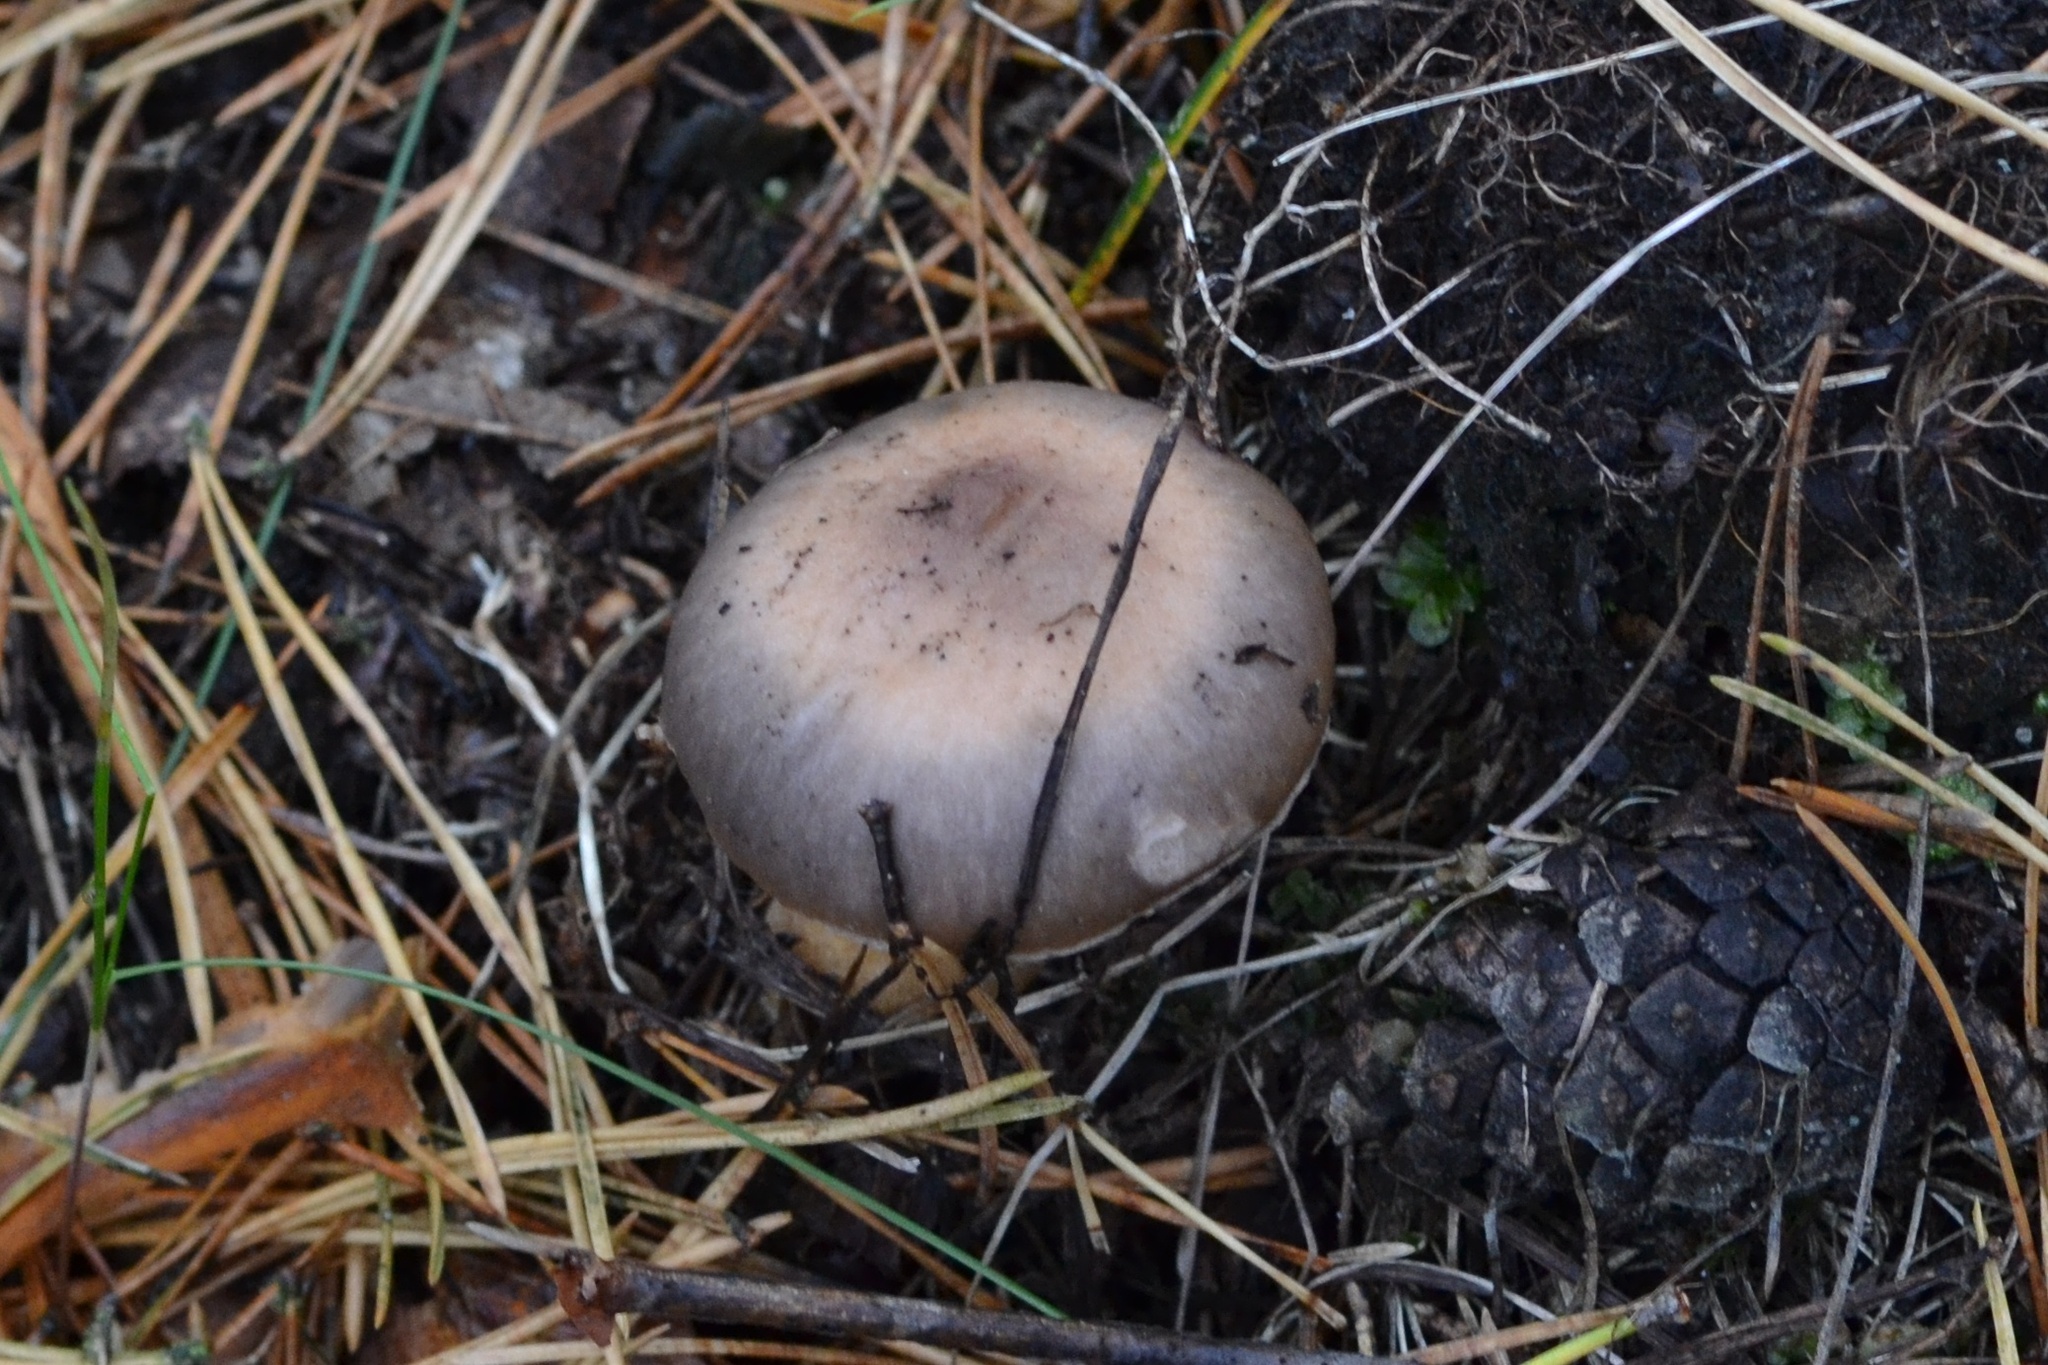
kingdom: Fungi
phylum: Basidiomycota
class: Agaricomycetes
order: Boletales
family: Gomphidiaceae
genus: Chroogomphus
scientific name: Chroogomphus rutilus
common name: Copper spike
